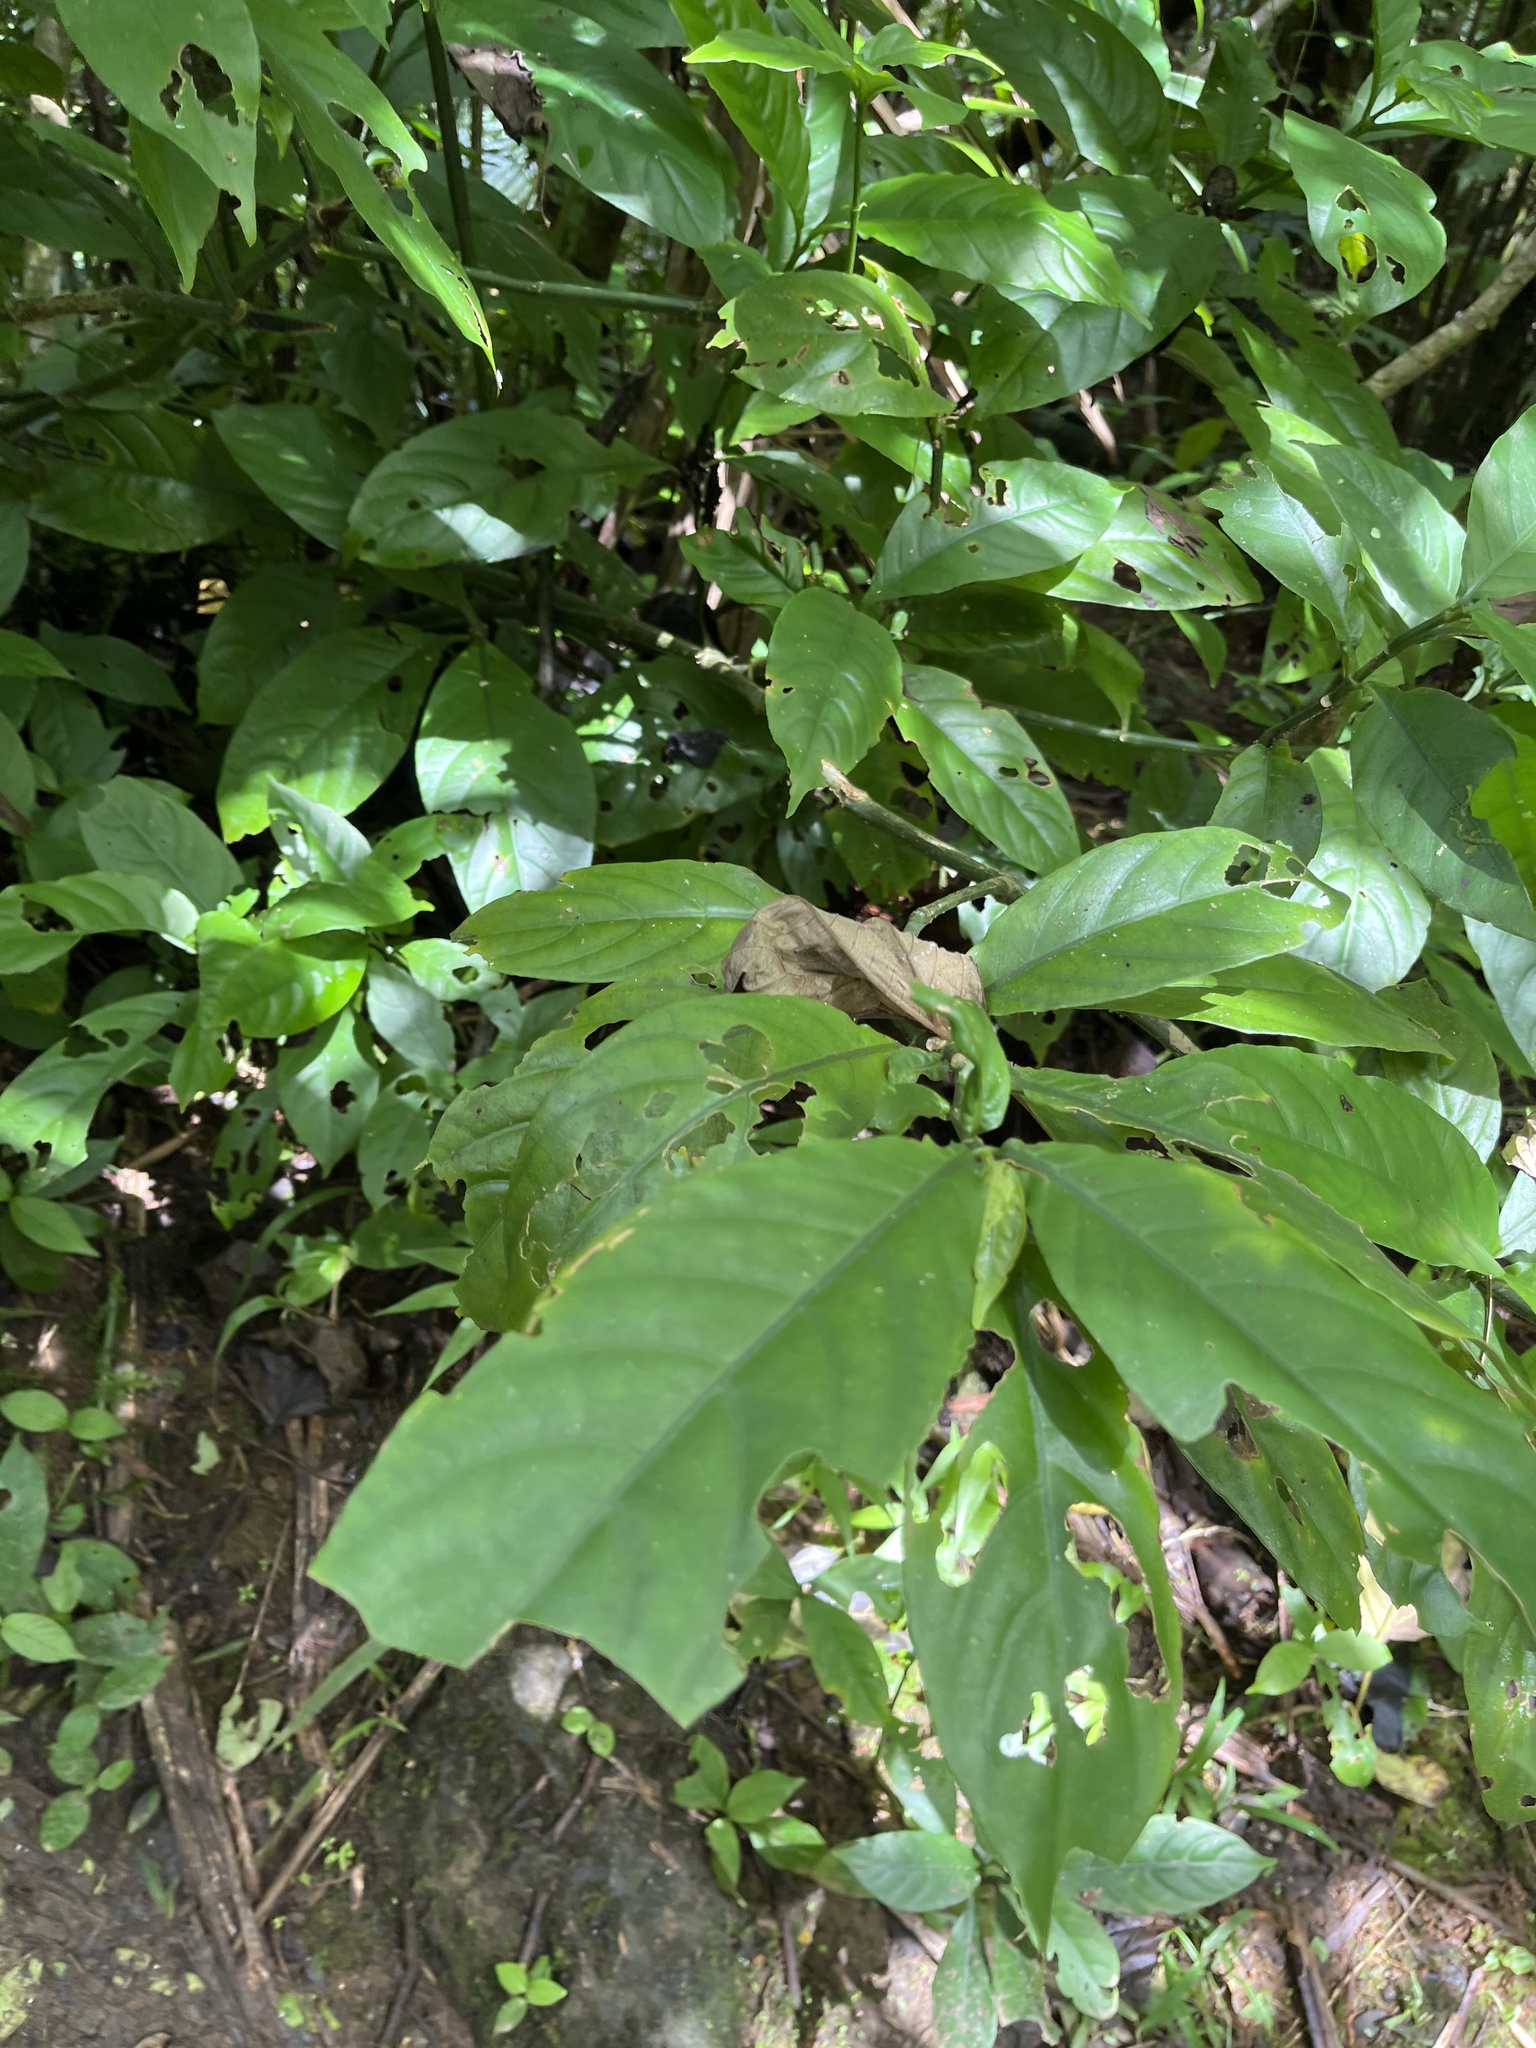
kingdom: Plantae
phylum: Tracheophyta
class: Magnoliopsida
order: Lamiales
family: Acanthaceae
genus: Odontonema
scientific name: Odontonema cuspidatum
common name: Mottled toothedthread
